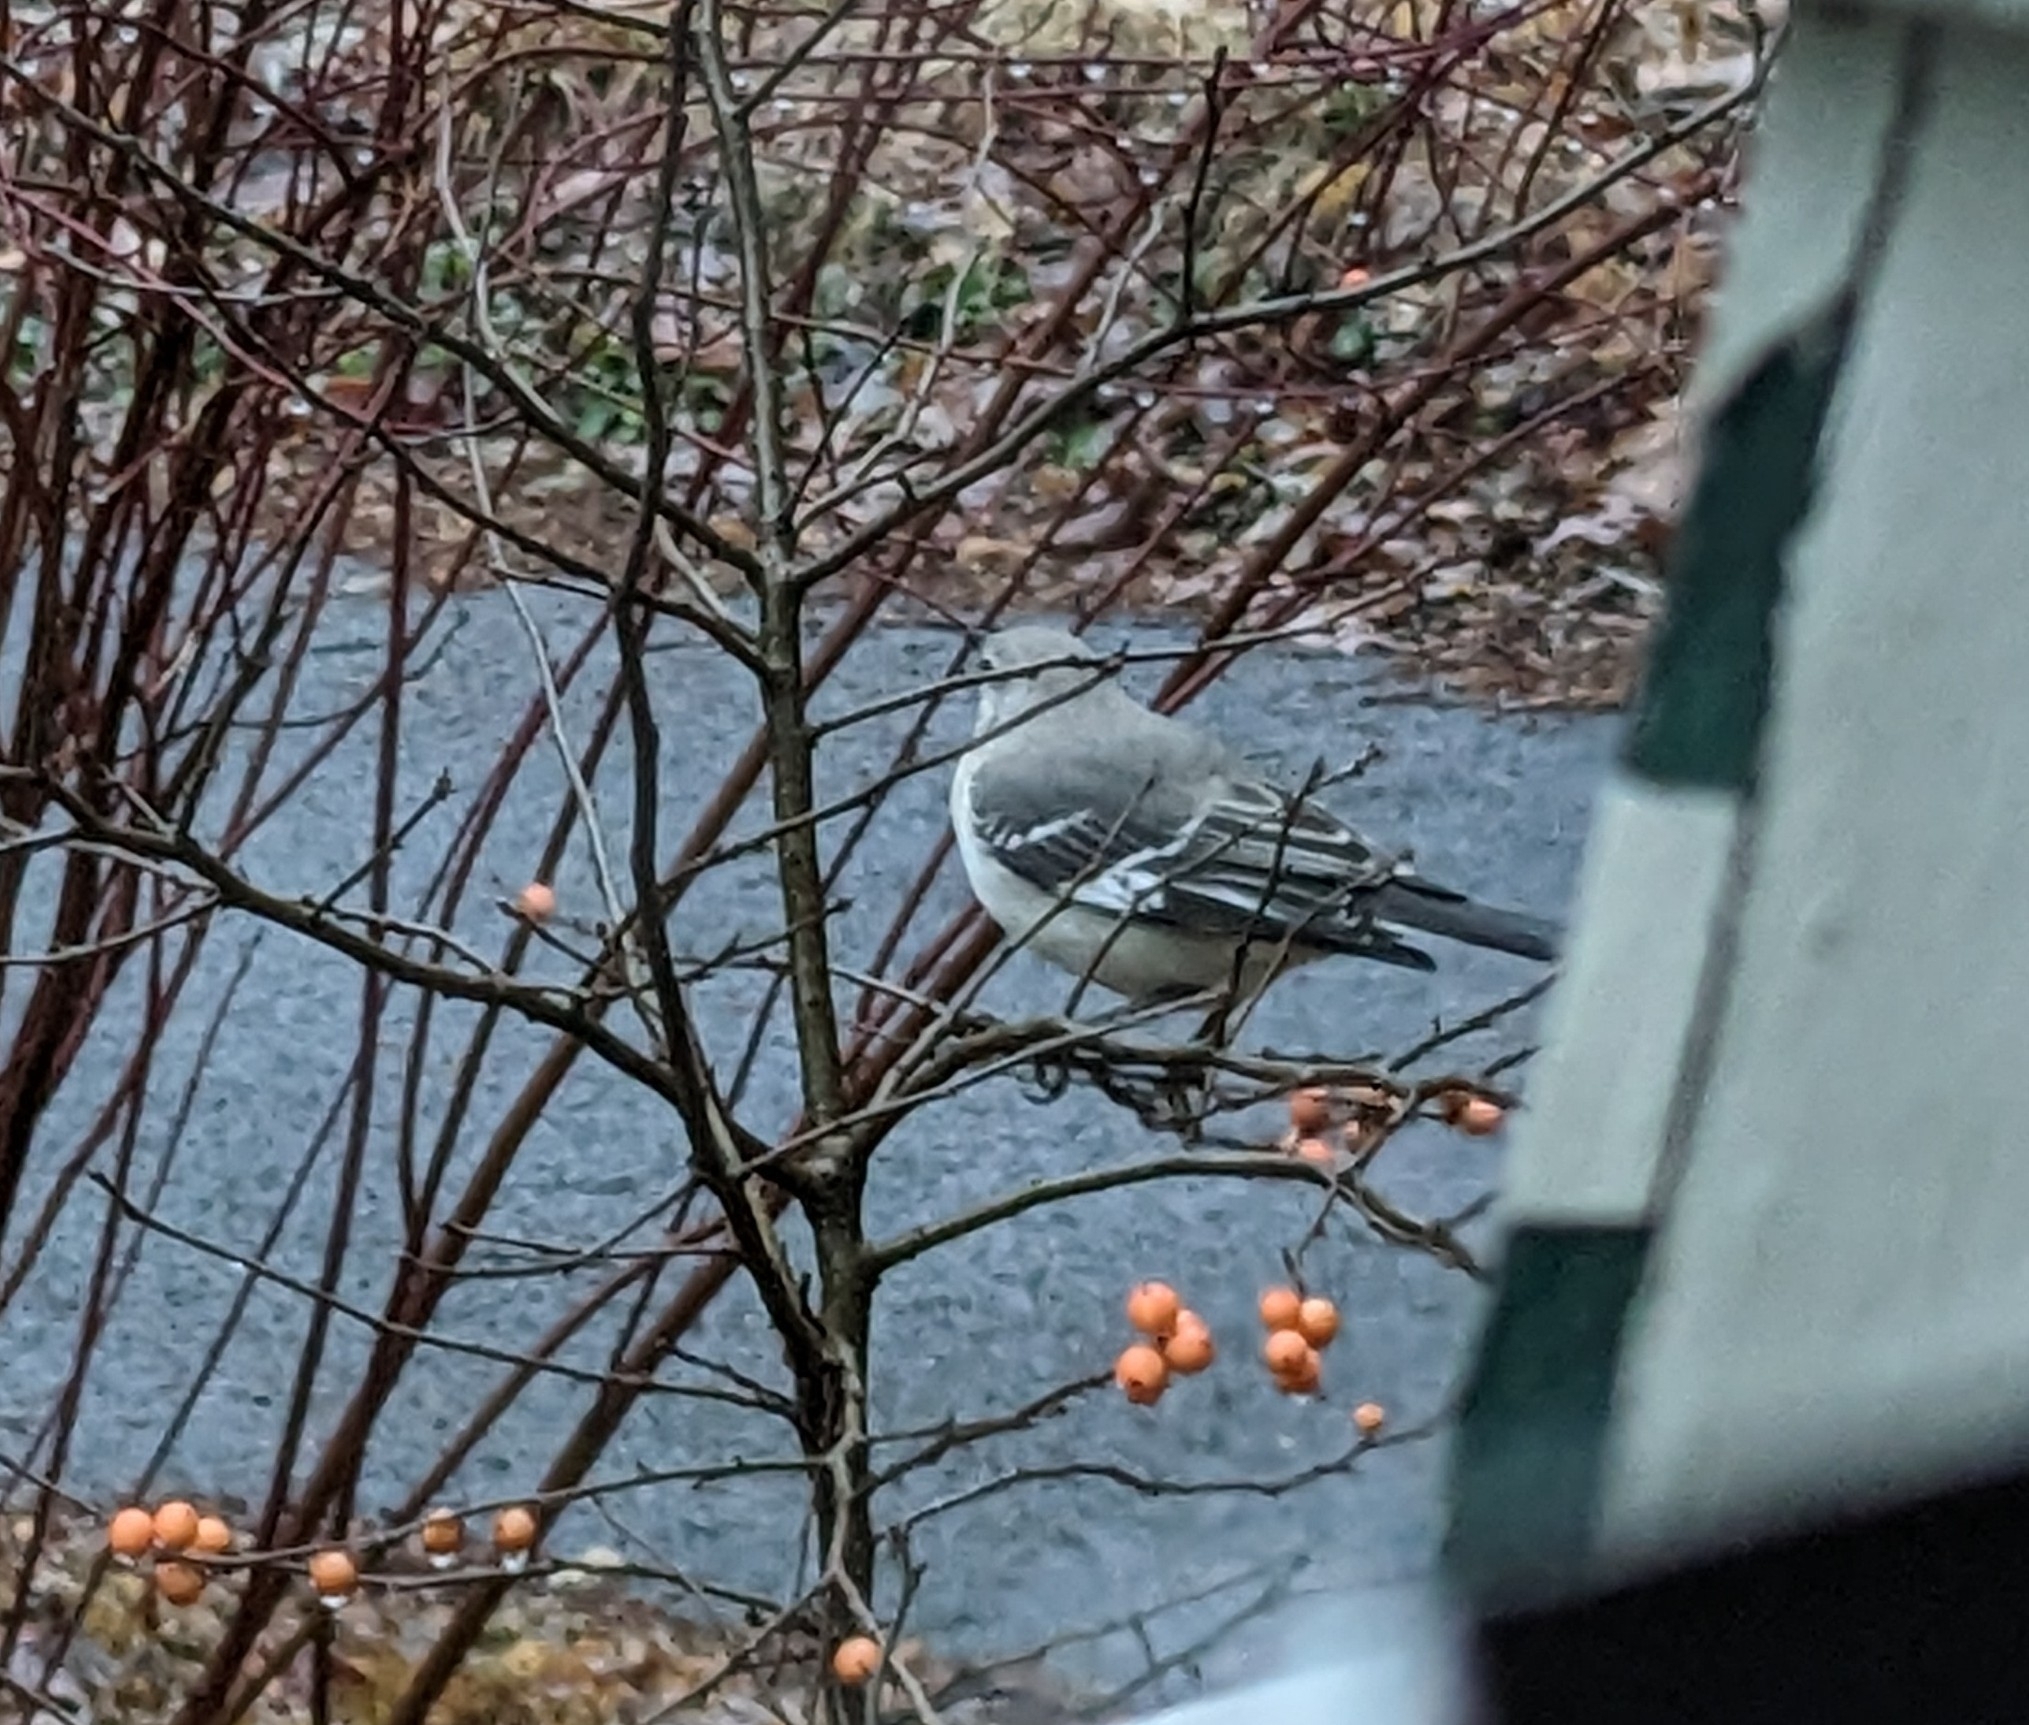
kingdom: Animalia
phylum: Chordata
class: Aves
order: Passeriformes
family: Mimidae
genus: Mimus
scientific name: Mimus polyglottos
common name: Northern mockingbird
